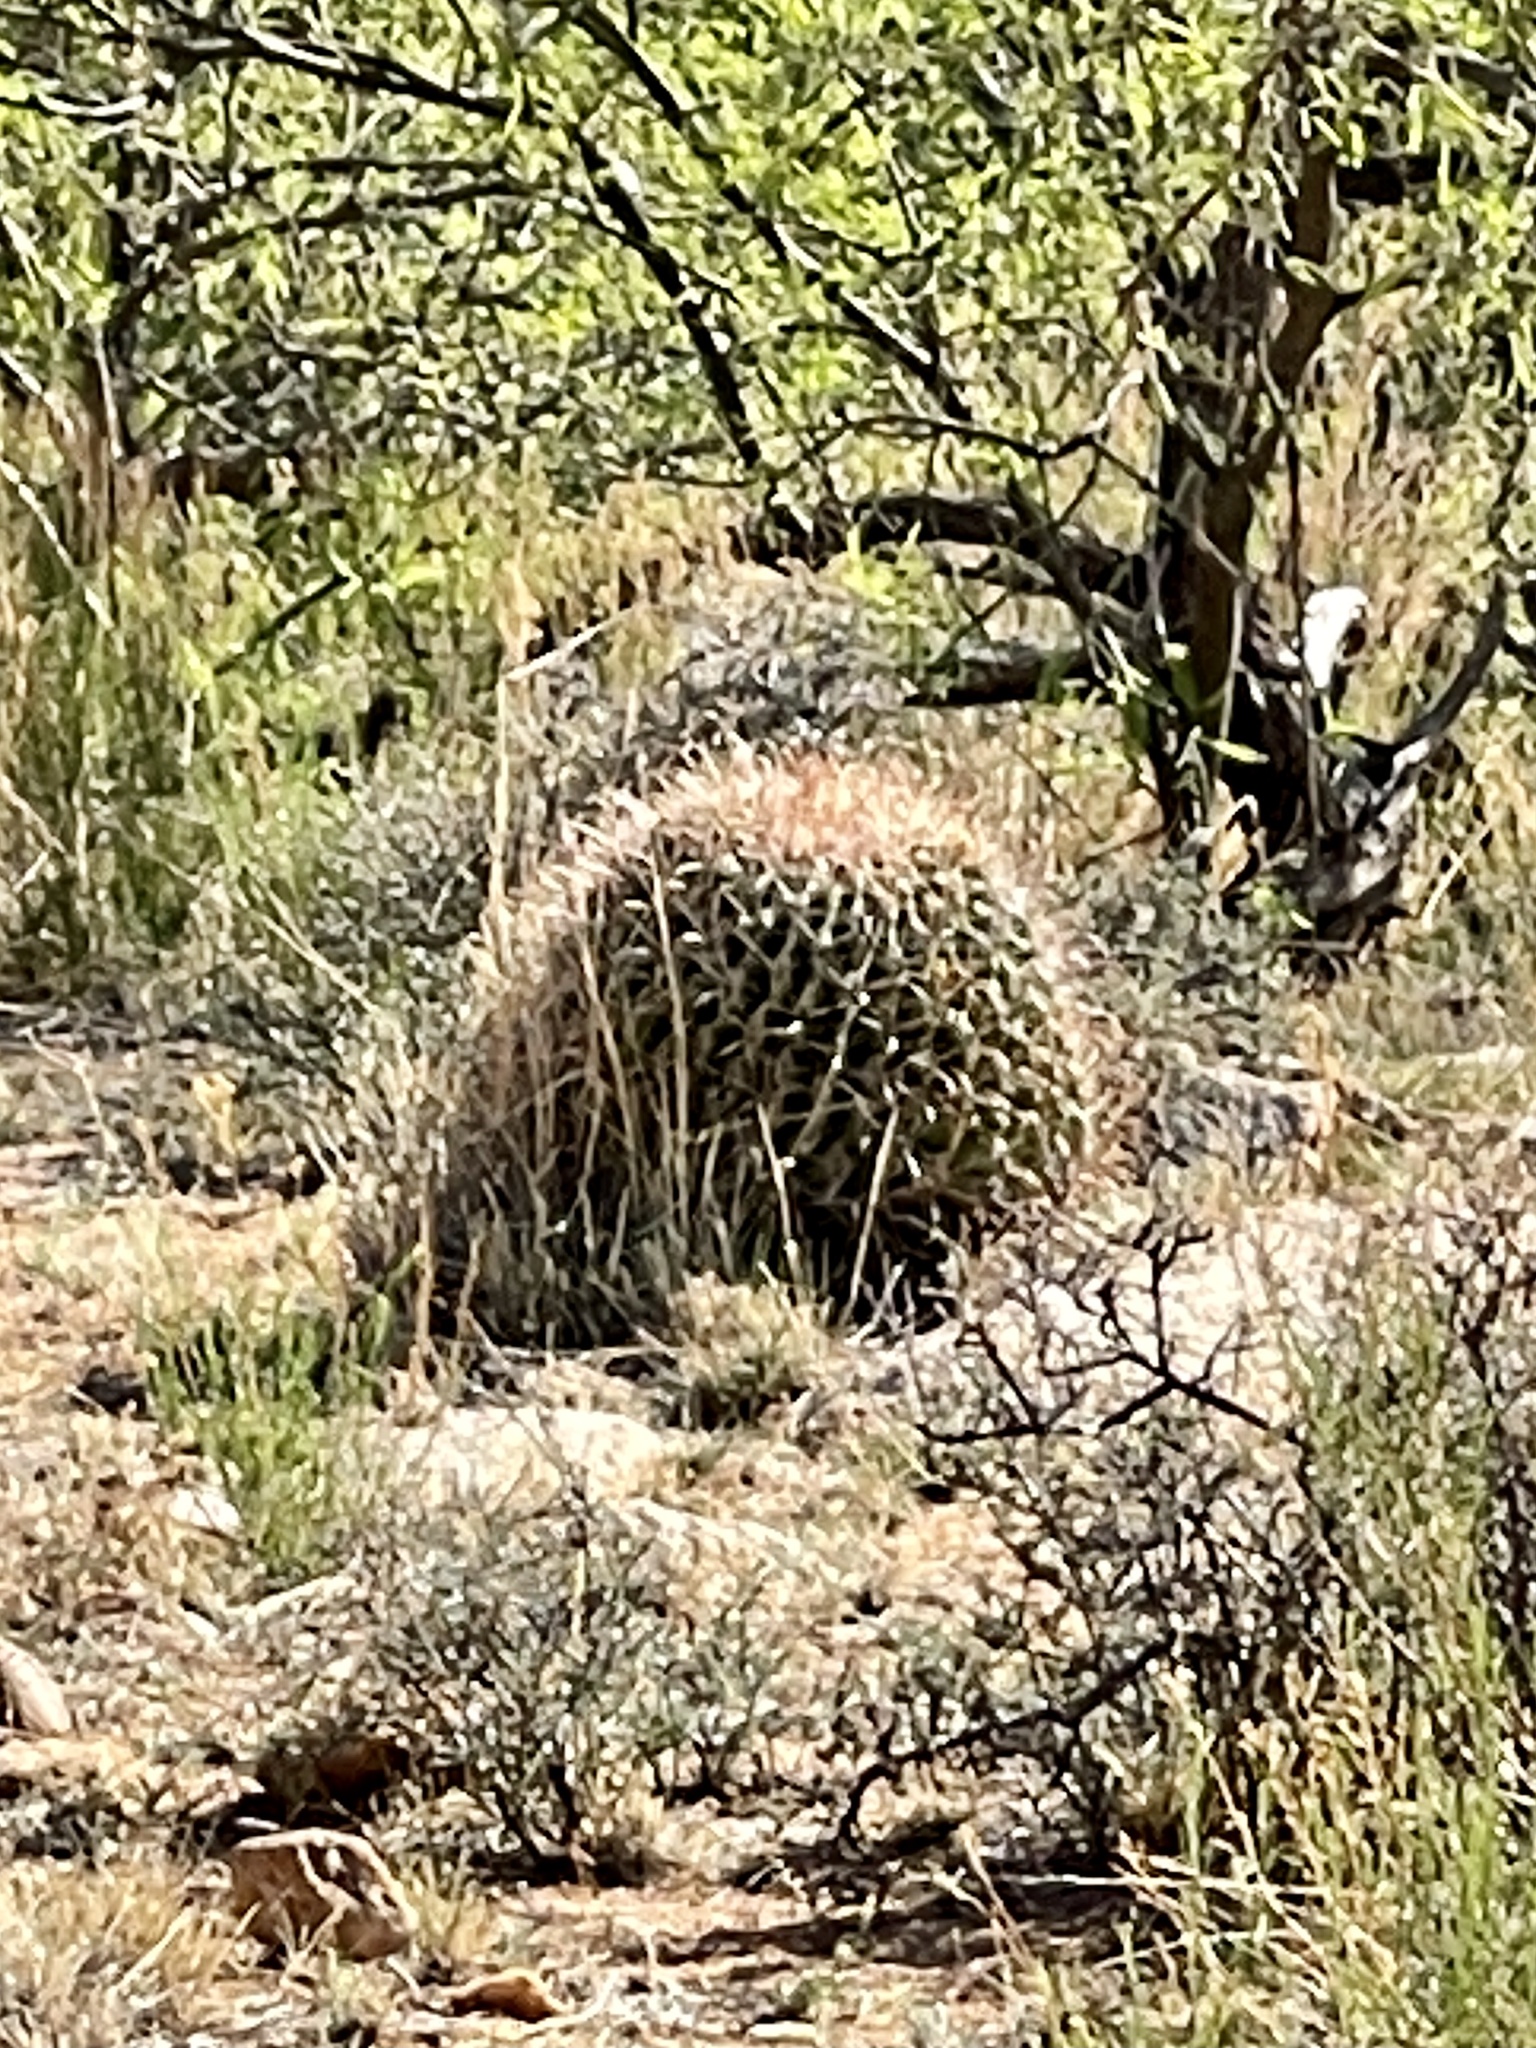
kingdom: Plantae
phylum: Tracheophyta
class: Magnoliopsida
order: Caryophyllales
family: Cactaceae
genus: Ferocactus
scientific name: Ferocactus wislizeni
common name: Candy barrel cactus
